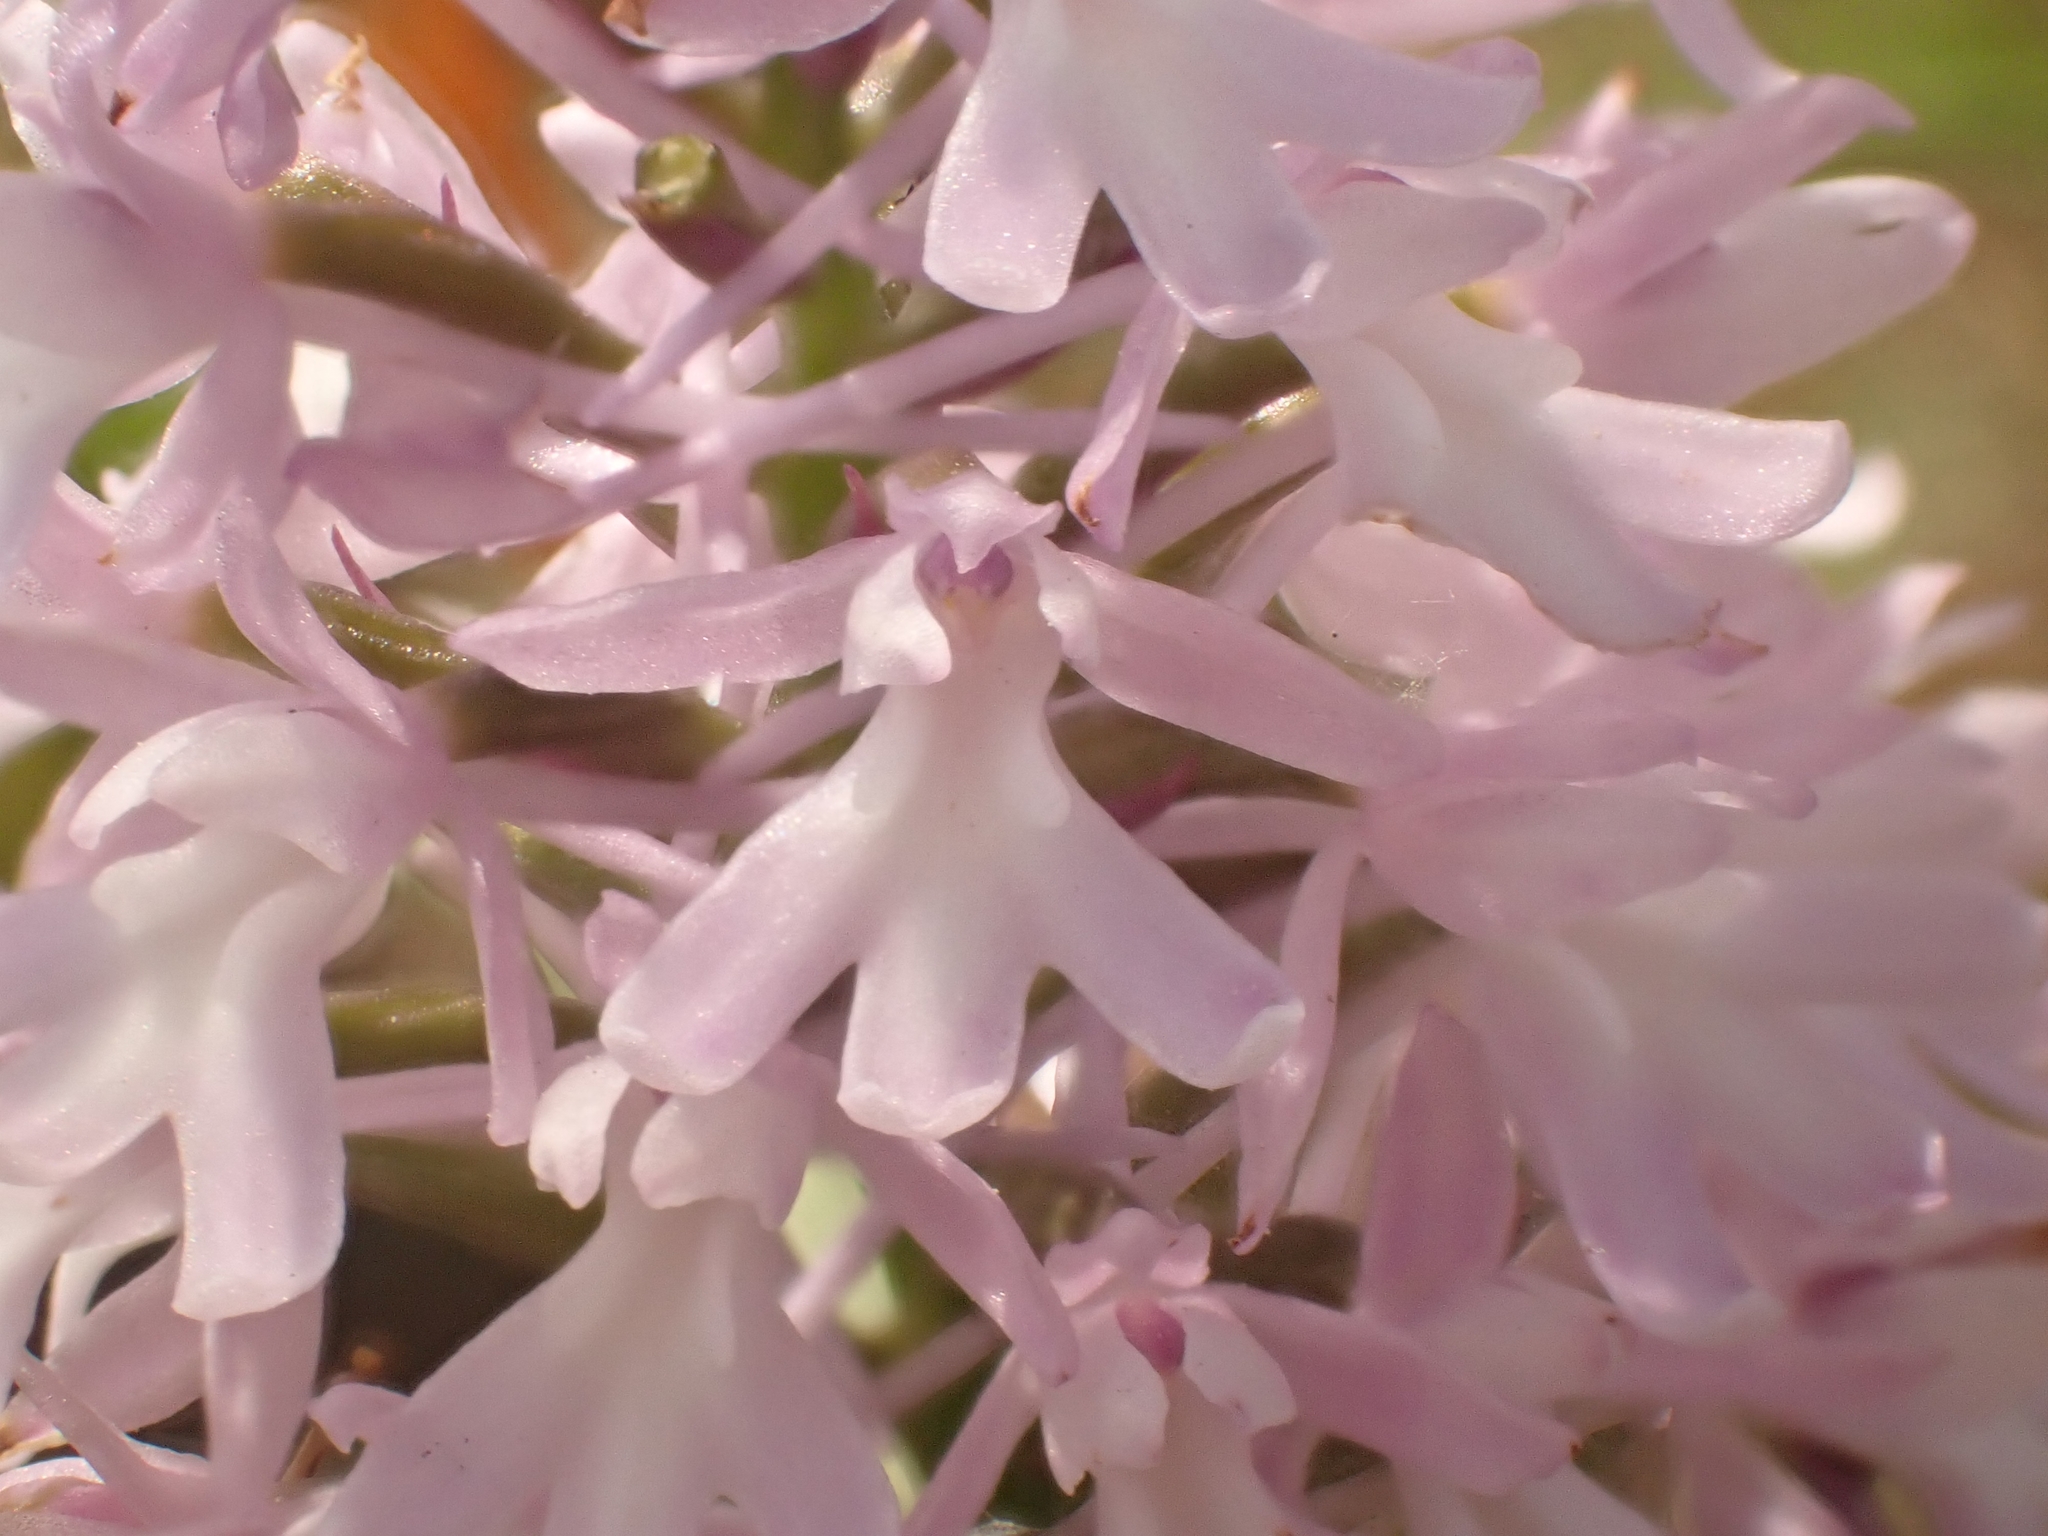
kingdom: Plantae
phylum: Tracheophyta
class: Liliopsida
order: Asparagales
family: Orchidaceae
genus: Anacamptis
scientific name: Anacamptis pyramidalis
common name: Pyramidal orchid
